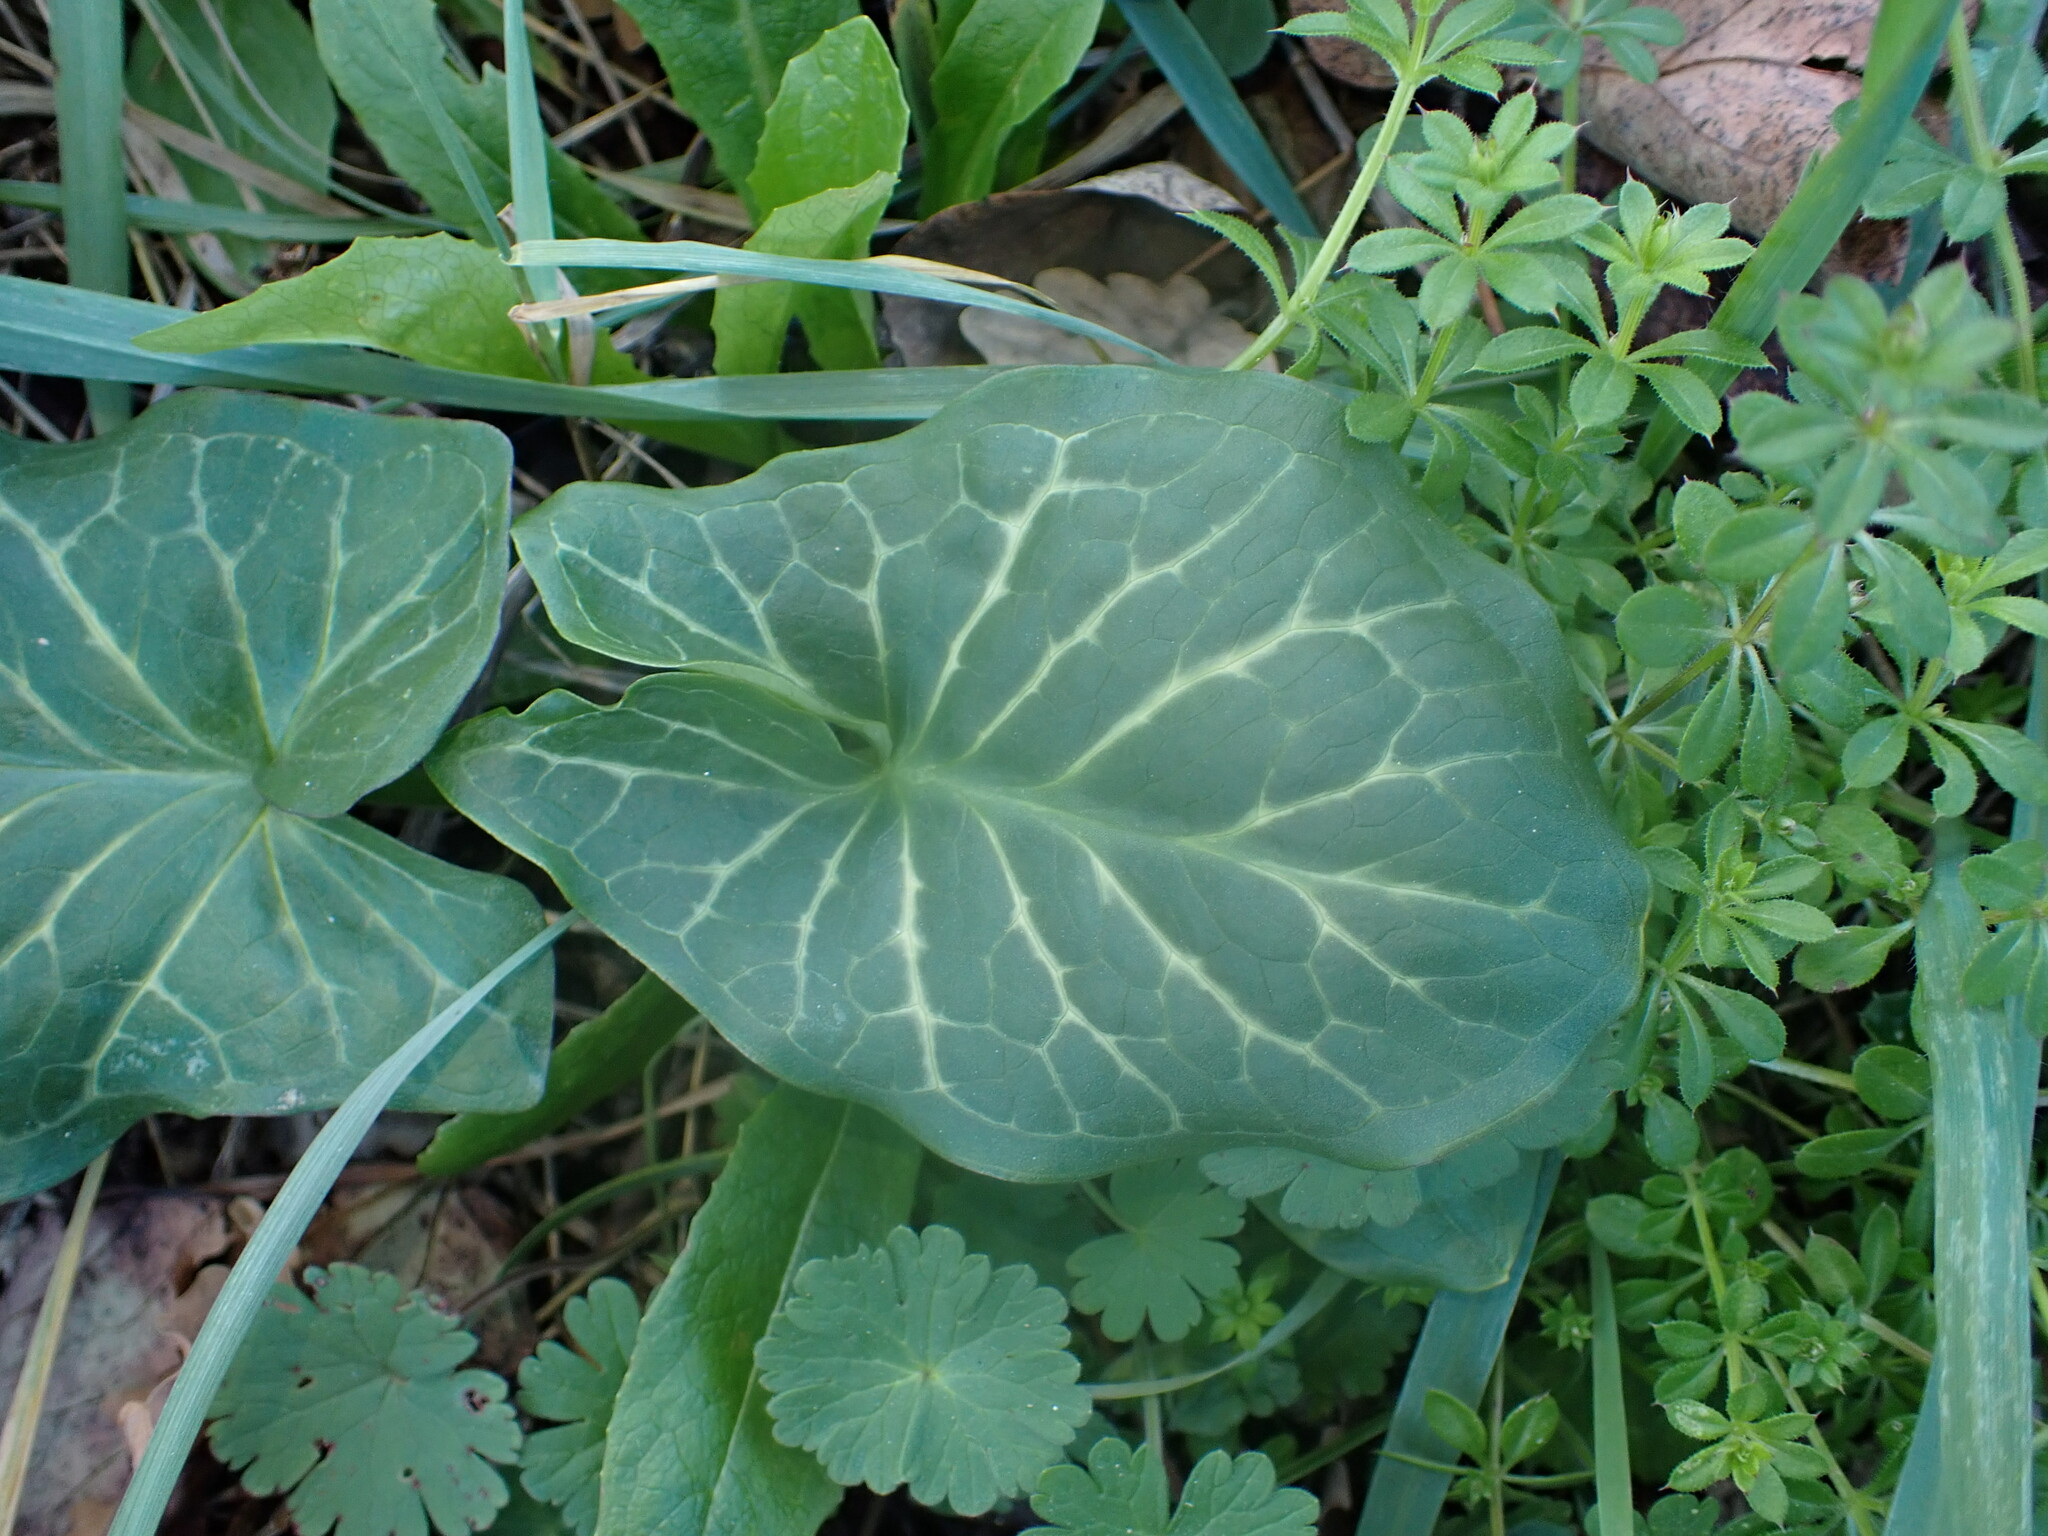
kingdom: Plantae
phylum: Tracheophyta
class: Liliopsida
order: Alismatales
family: Araceae
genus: Arum
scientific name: Arum italicum
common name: Italian lords-and-ladies
